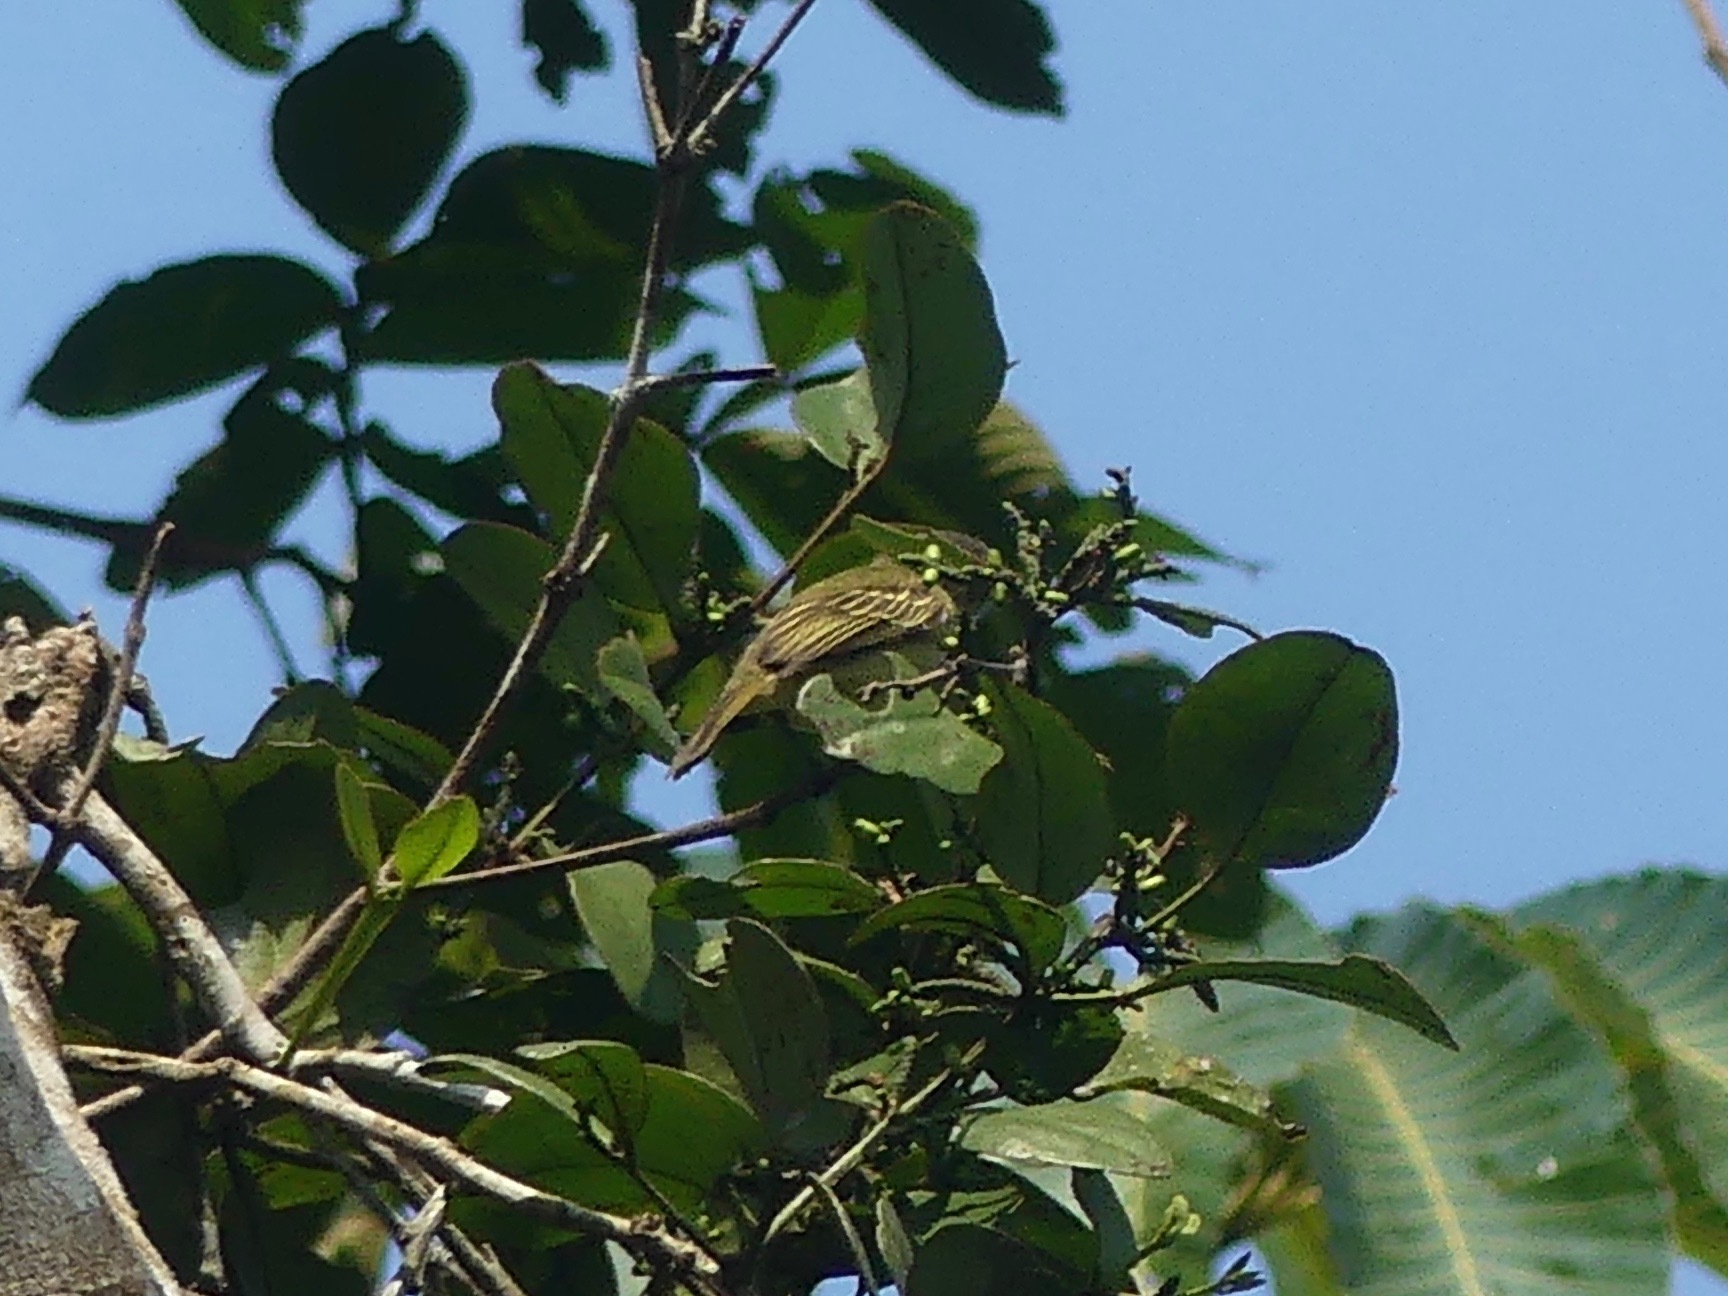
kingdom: Animalia
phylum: Chordata
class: Aves
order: Passeriformes
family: Tyrannidae
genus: Zimmerius
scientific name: Zimmerius gracilipes
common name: Slender-footed tyrannulet
